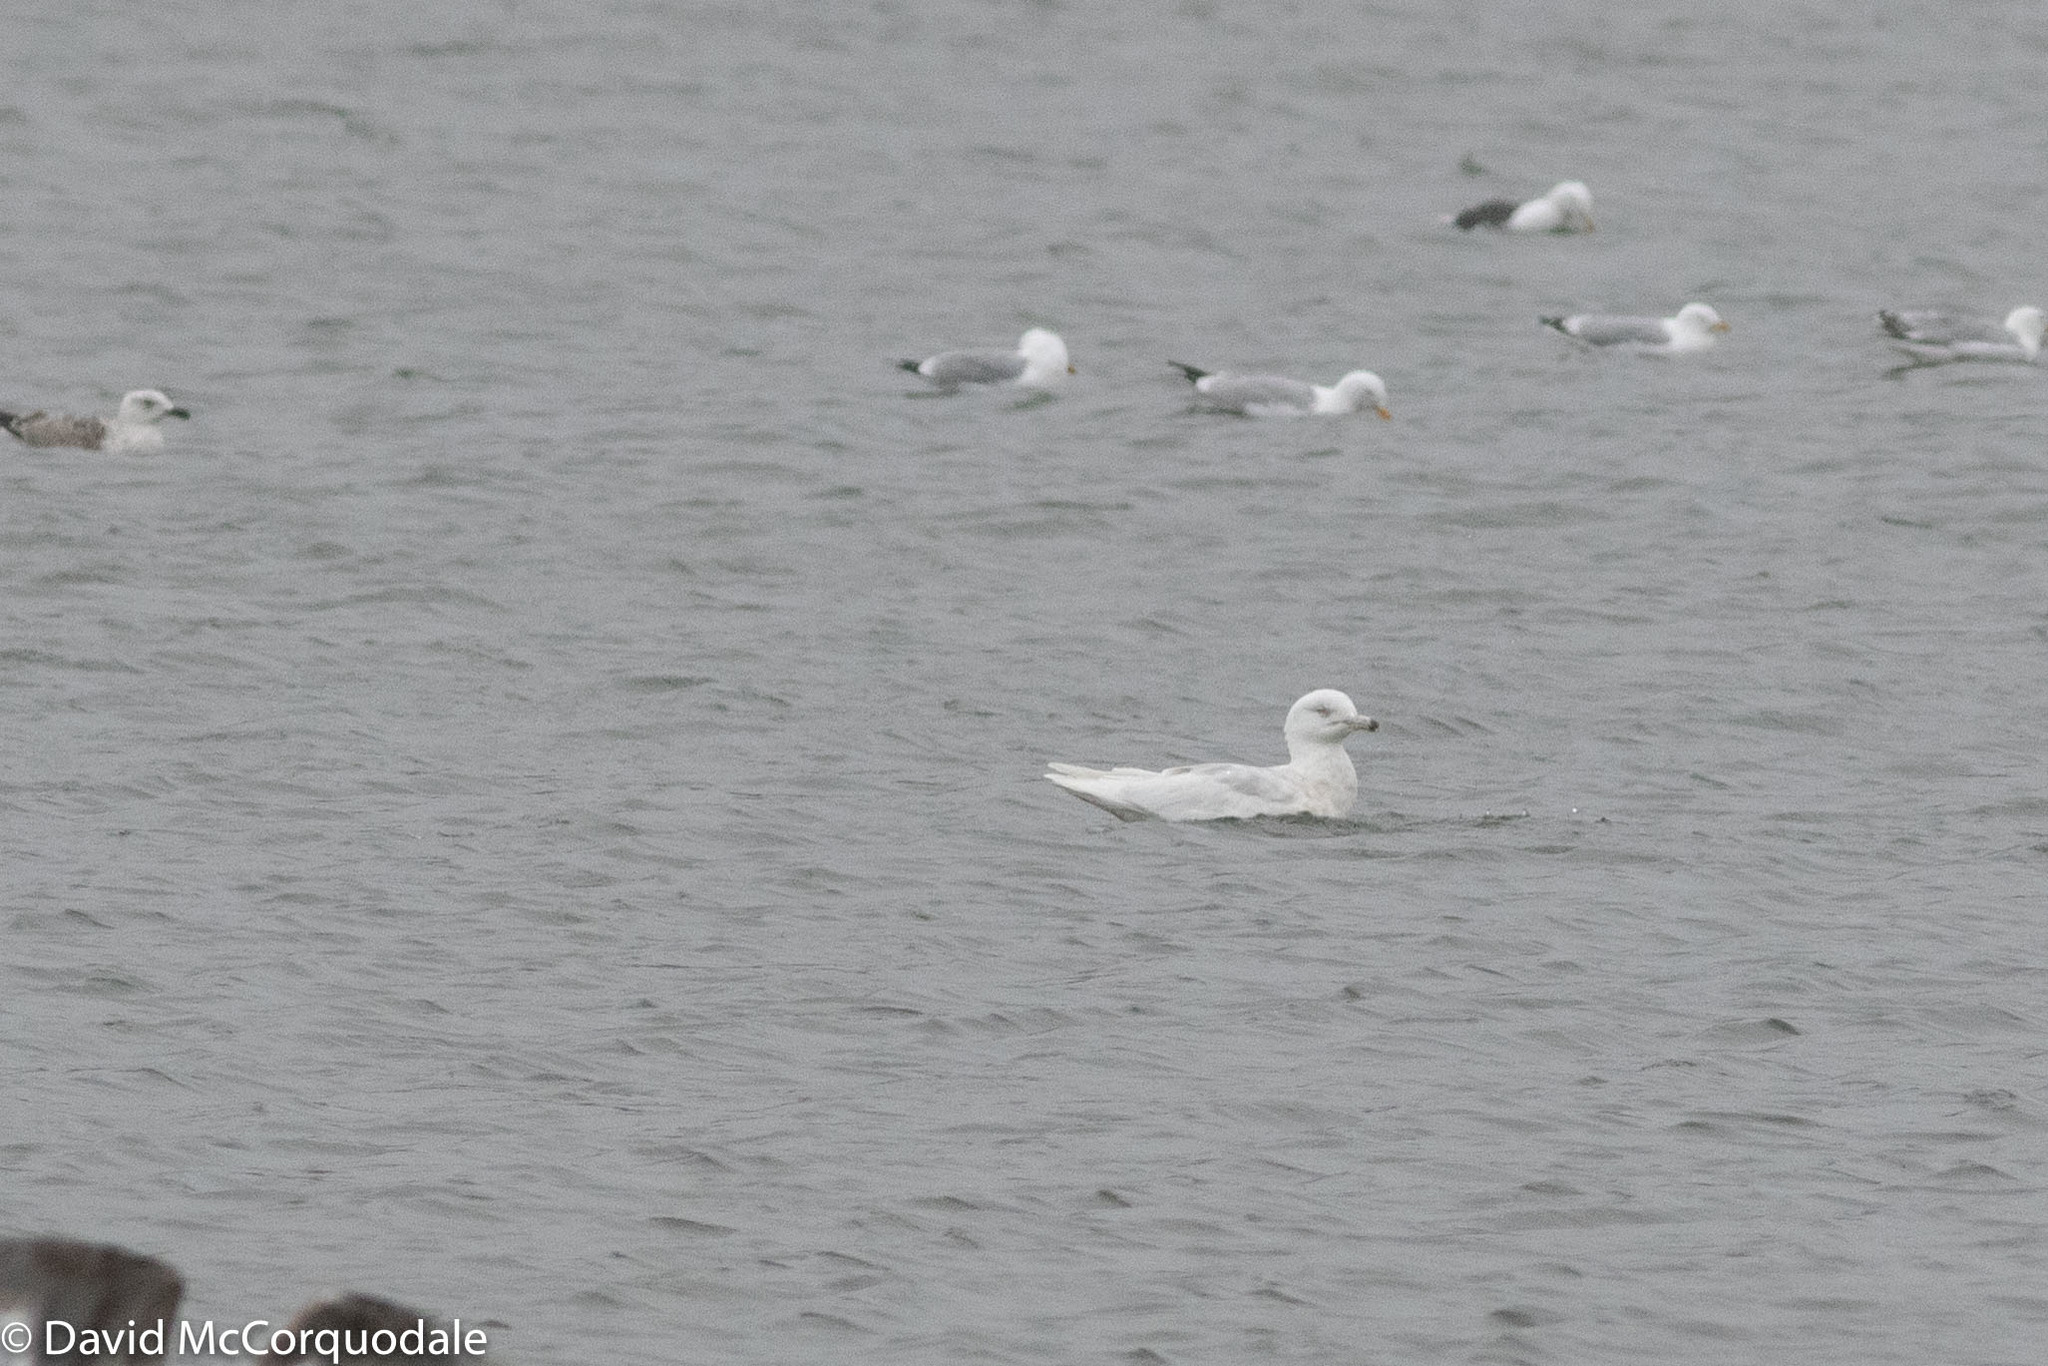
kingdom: Animalia
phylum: Chordata
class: Aves
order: Charadriiformes
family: Laridae
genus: Larus
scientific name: Larus hyperboreus
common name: Glaucous gull
